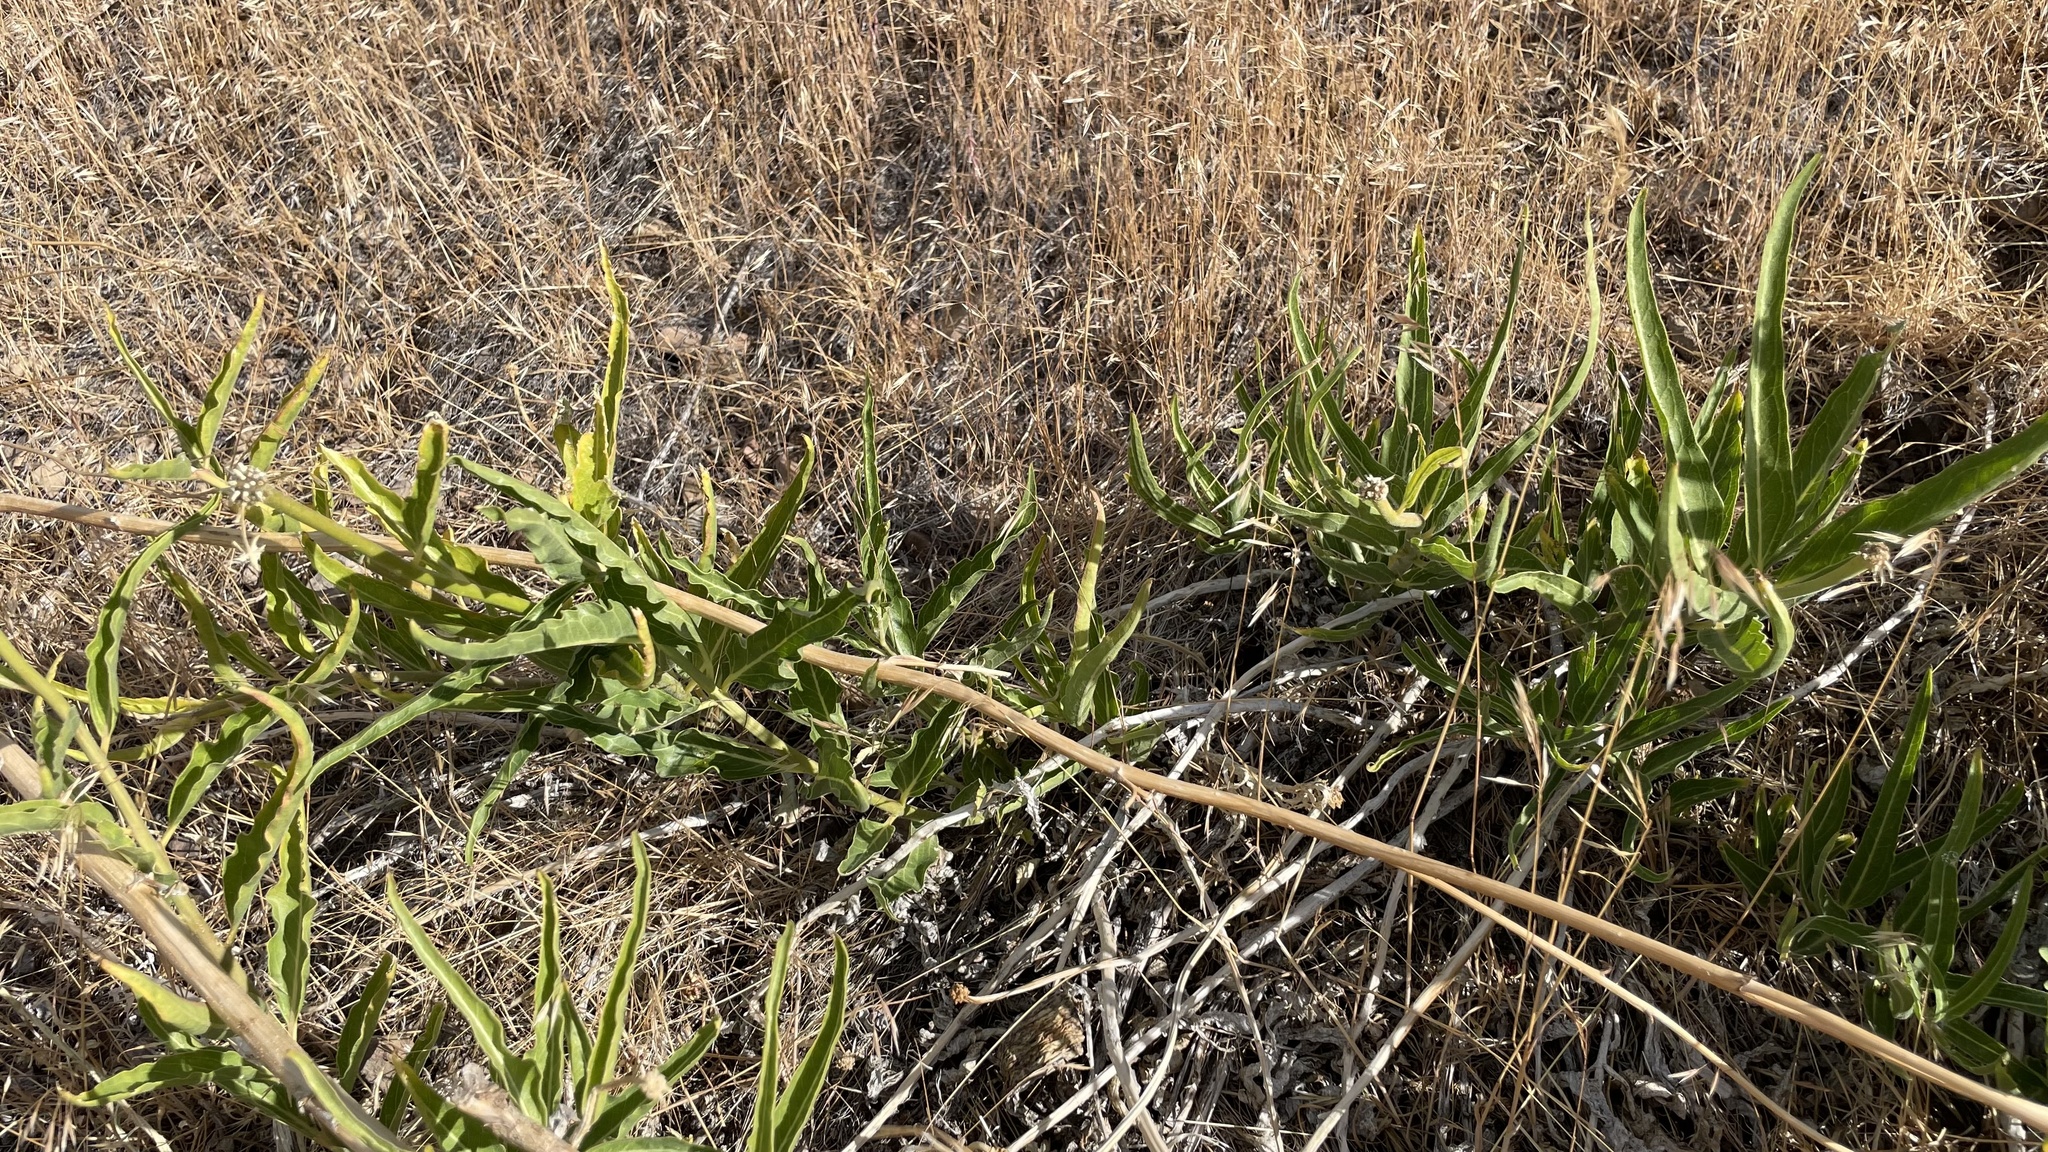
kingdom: Plantae
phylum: Tracheophyta
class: Magnoliopsida
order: Gentianales
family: Apocynaceae
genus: Asclepias
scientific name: Asclepias asperula
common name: Antelope horns
